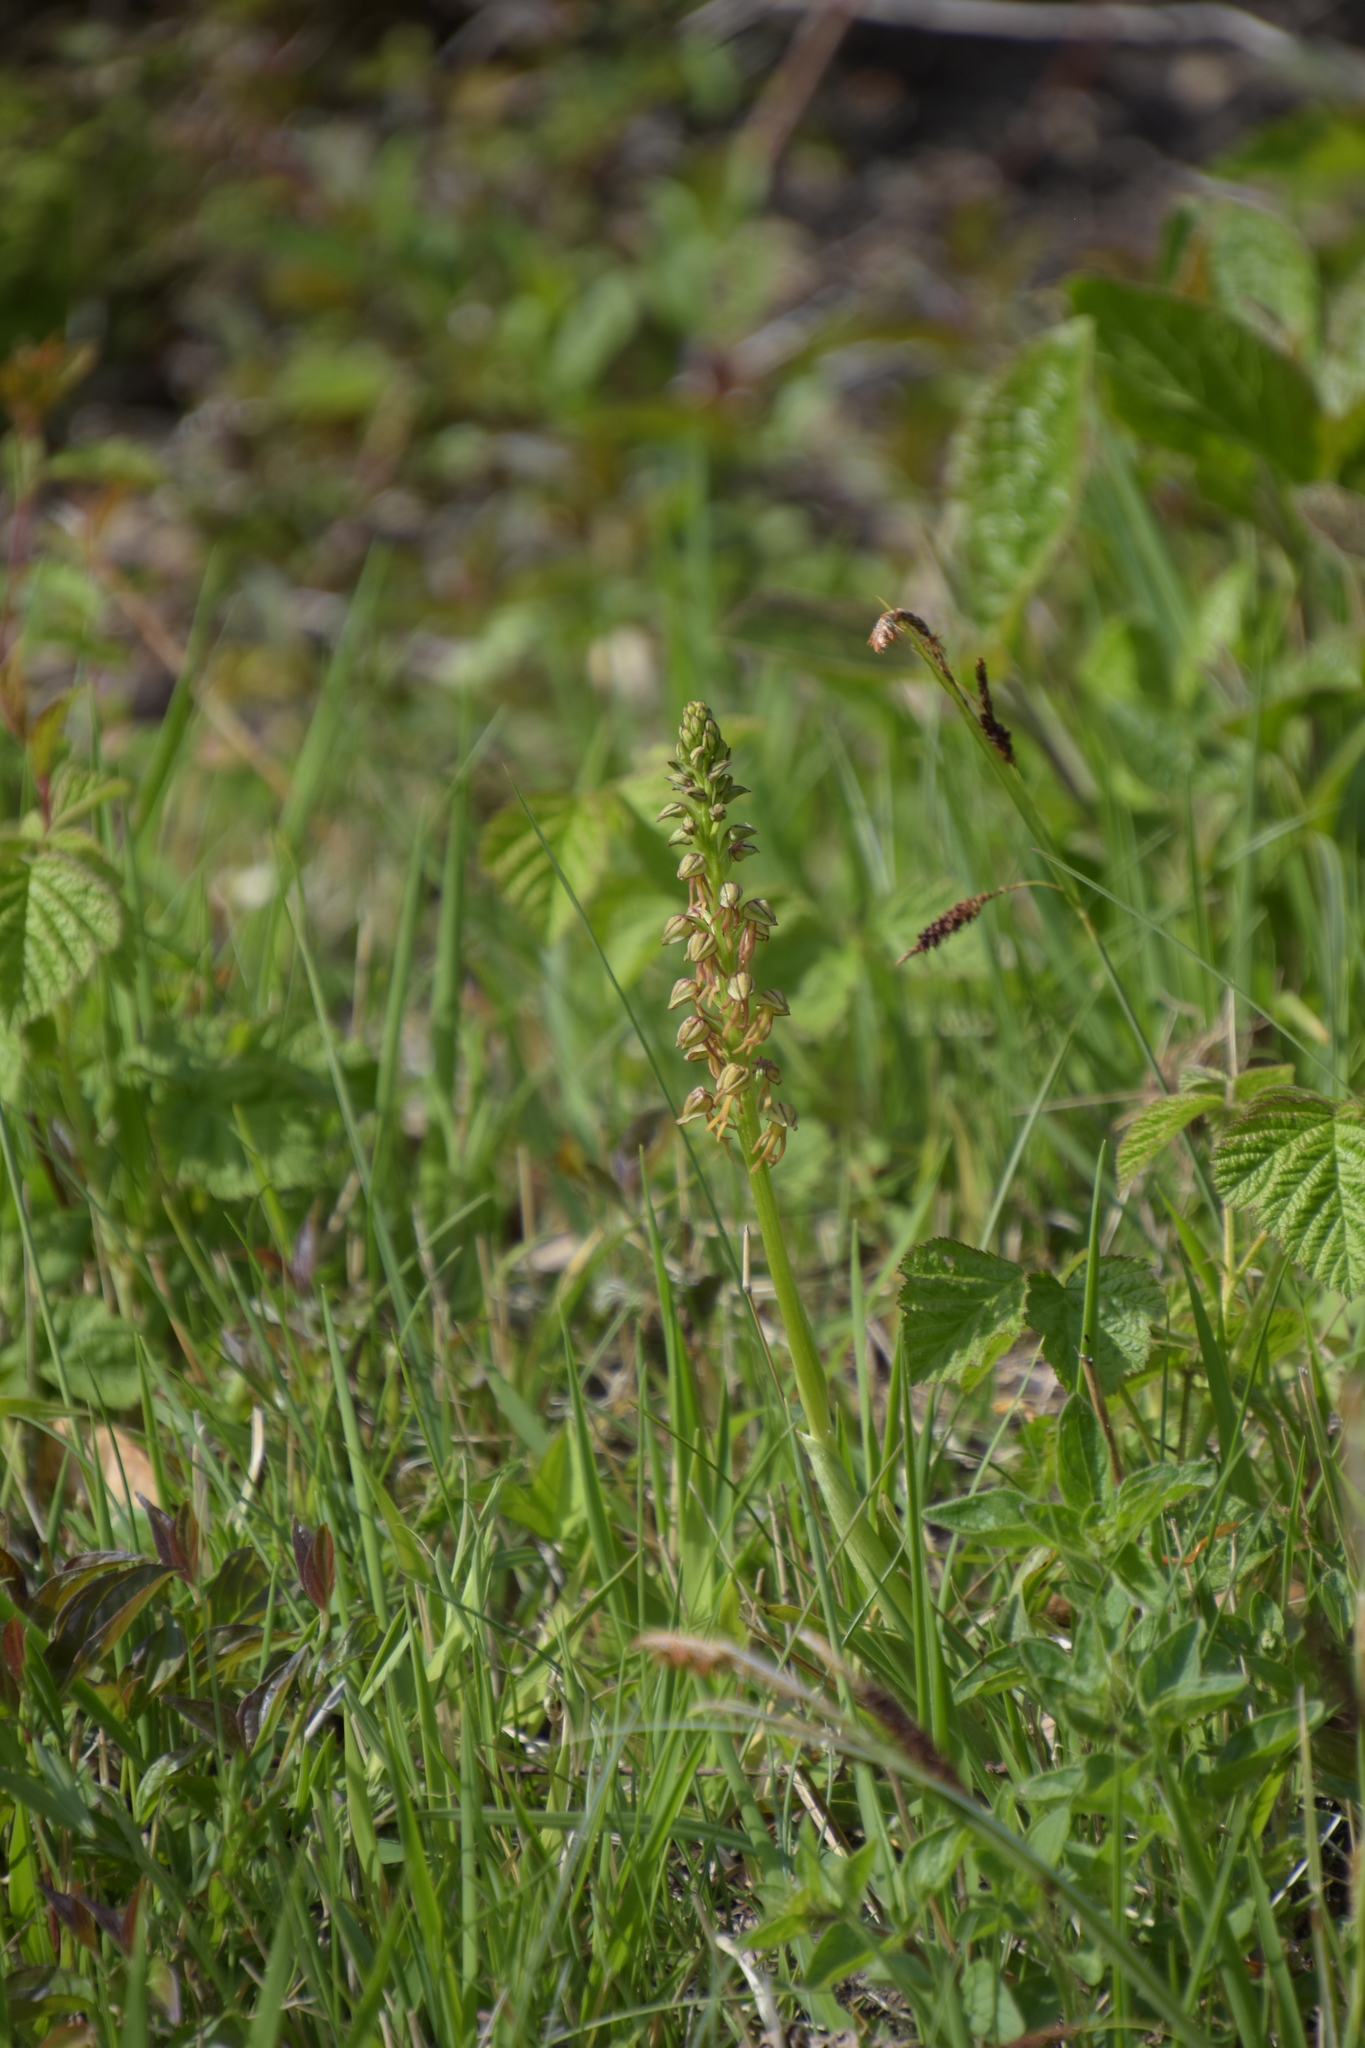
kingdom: Plantae
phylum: Tracheophyta
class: Liliopsida
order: Asparagales
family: Orchidaceae
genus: Orchis
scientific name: Orchis anthropophora
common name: Man orchid
